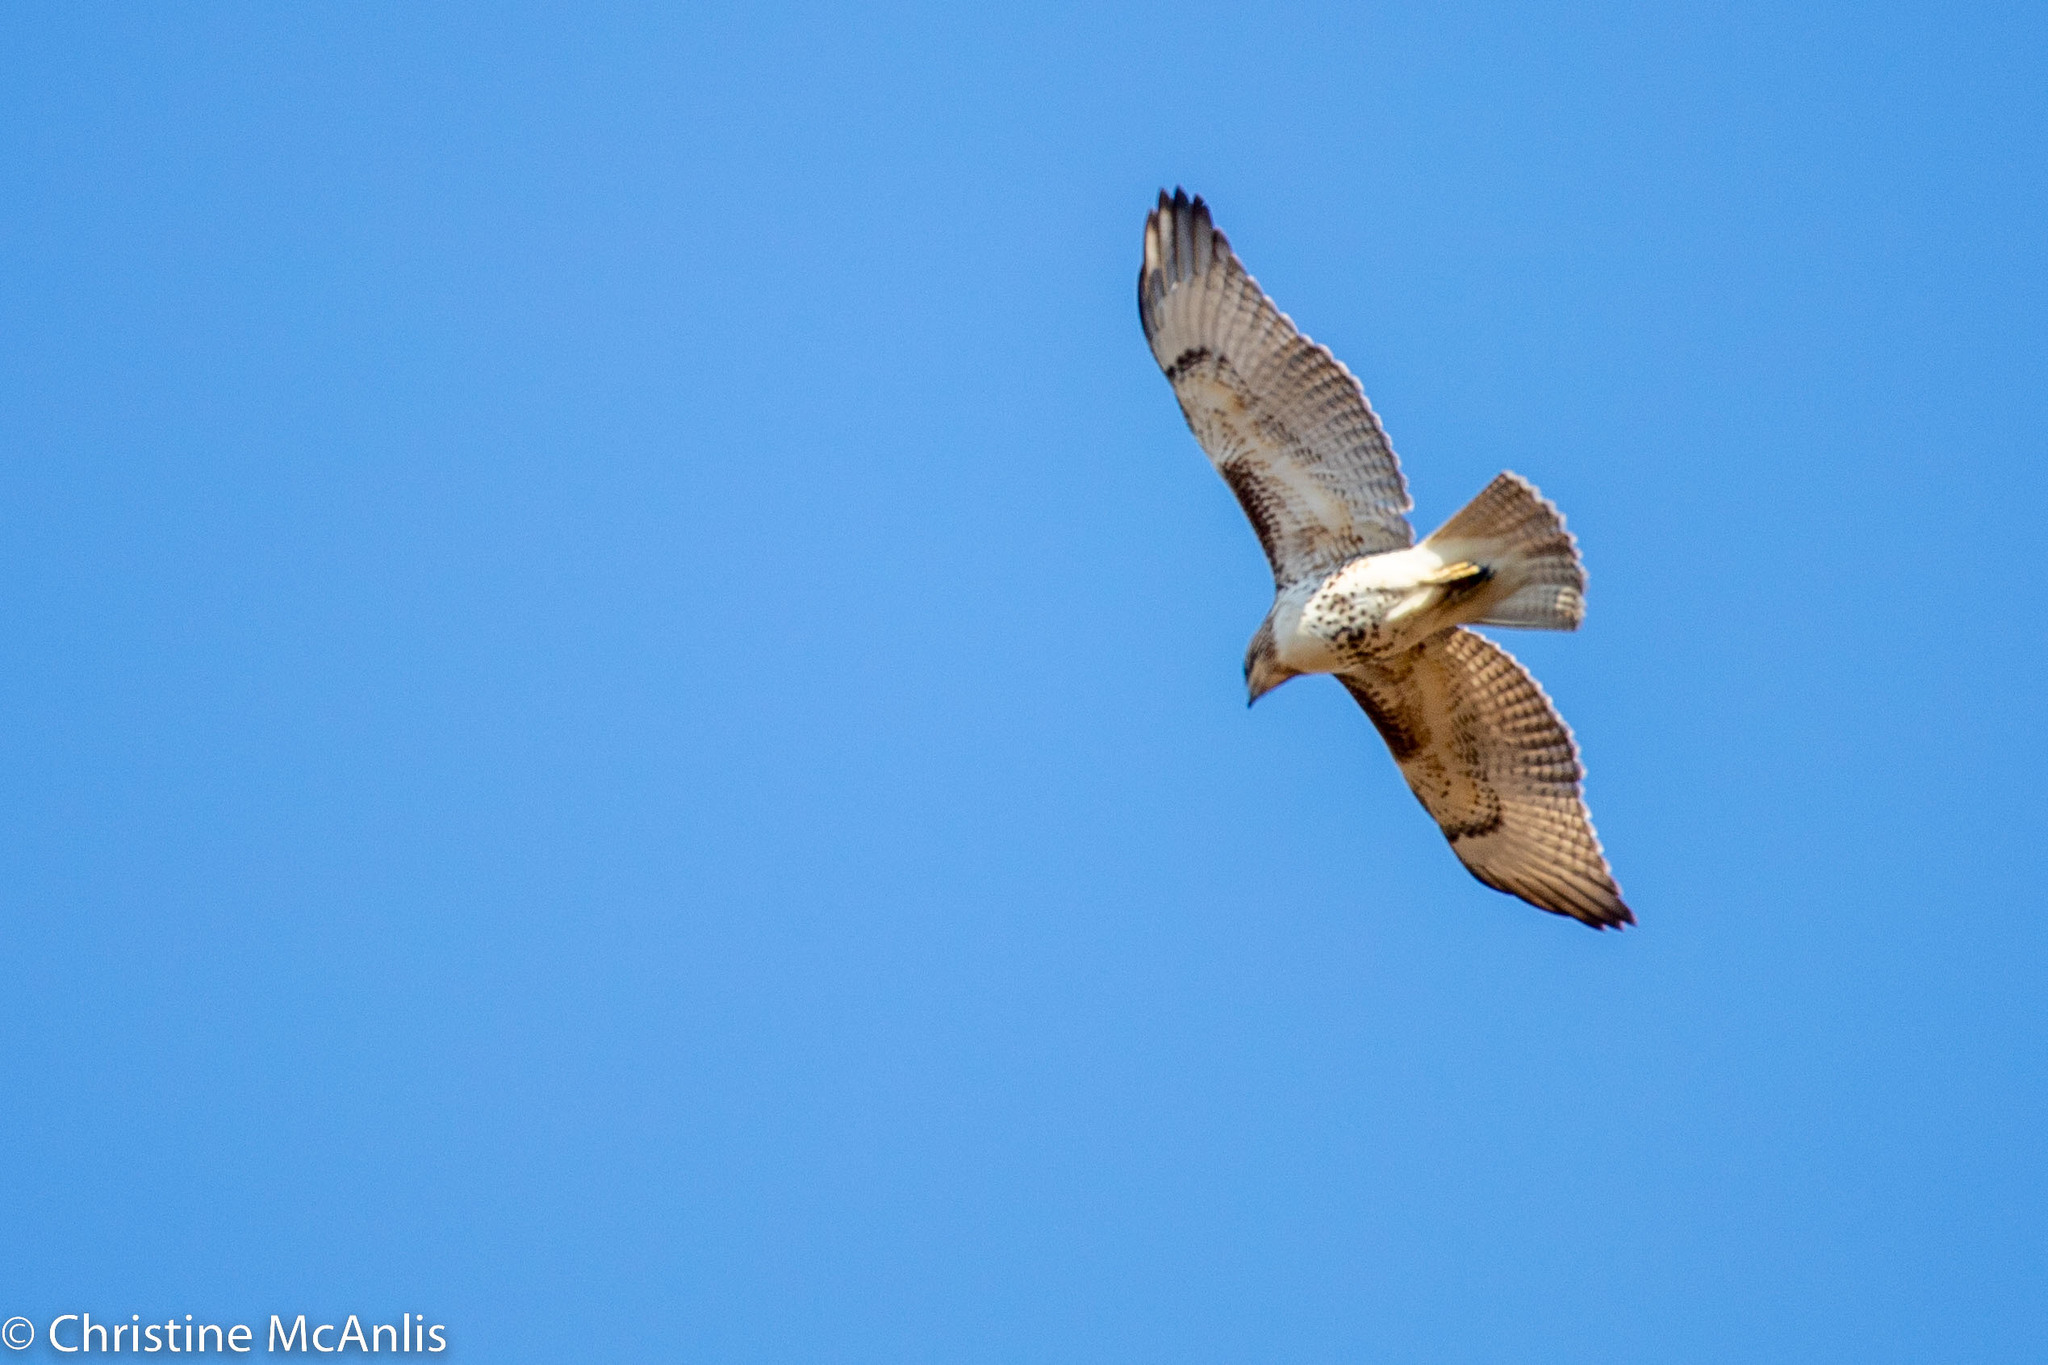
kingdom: Animalia
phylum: Chordata
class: Aves
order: Accipitriformes
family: Accipitridae
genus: Buteo
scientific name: Buteo jamaicensis
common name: Red-tailed hawk
